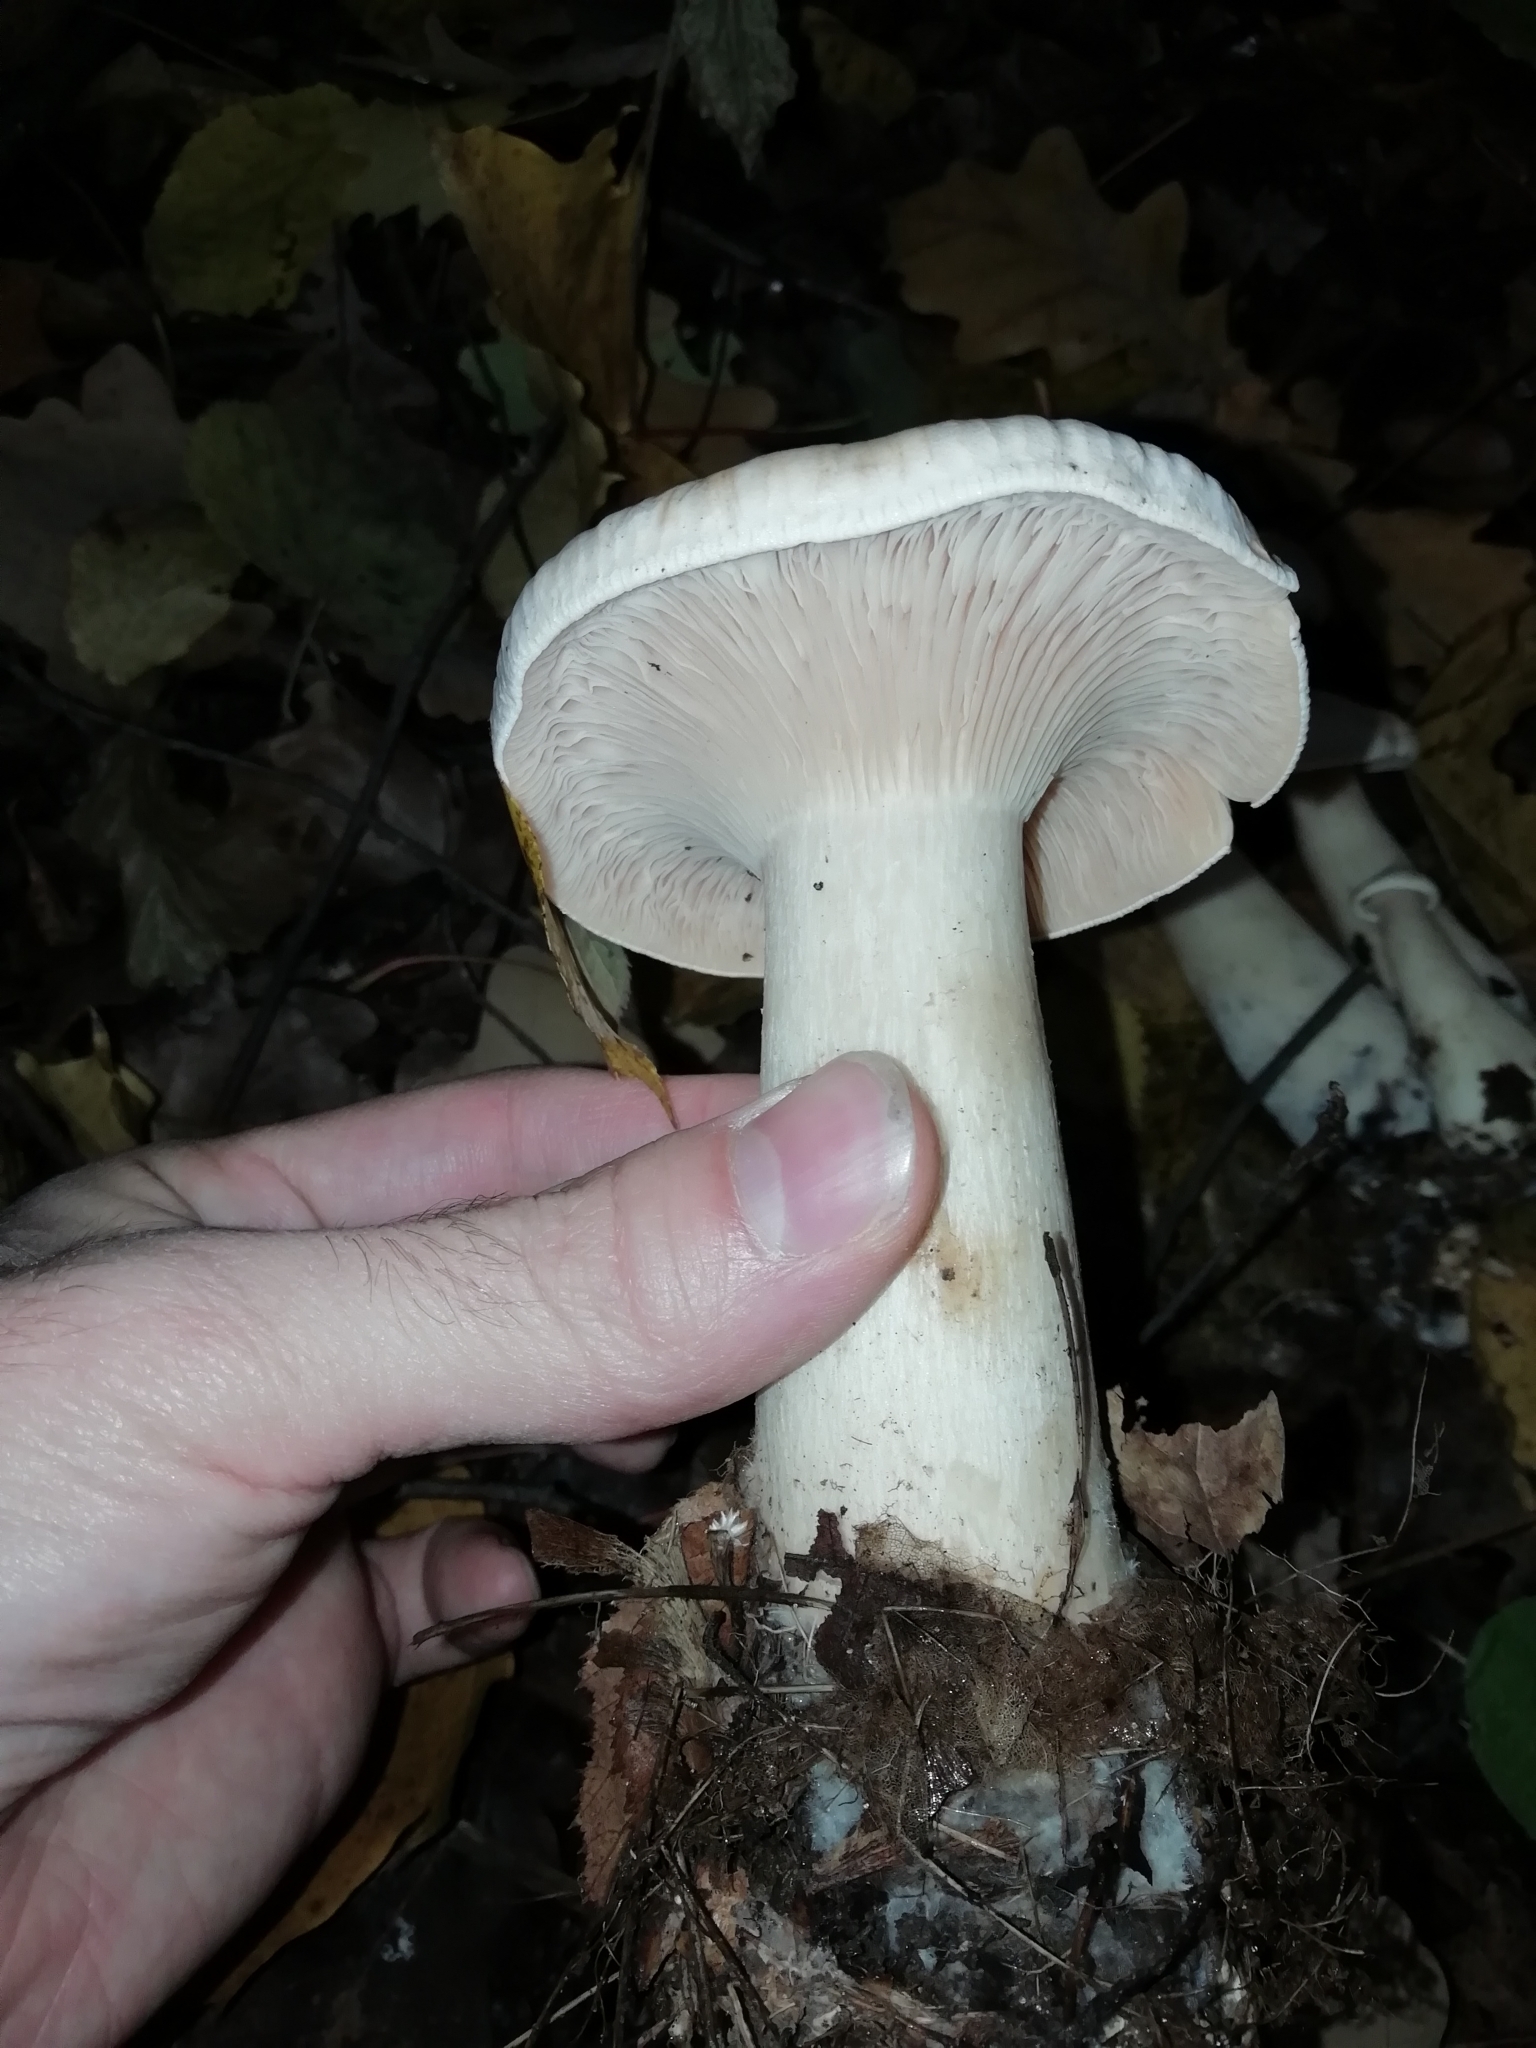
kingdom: Fungi
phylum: Basidiomycota
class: Agaricomycetes
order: Agaricales
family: Tricholomataceae
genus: Infundibulicybe
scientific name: Infundibulicybe geotropa
